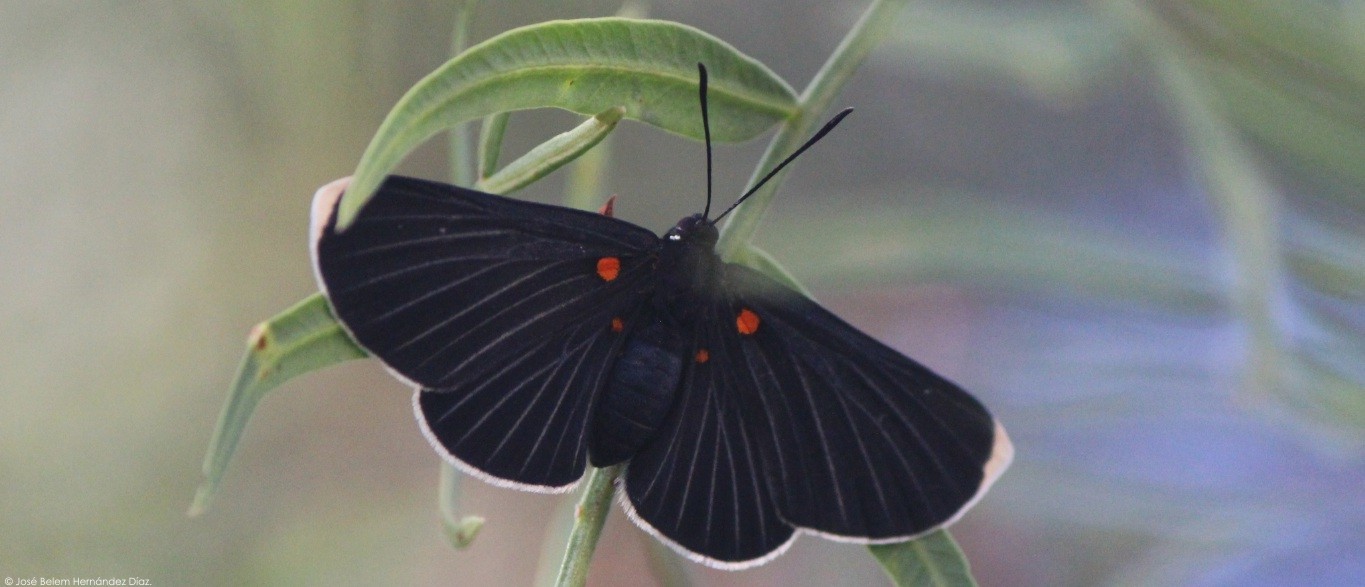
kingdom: Animalia
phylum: Arthropoda
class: Insecta
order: Lepidoptera
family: Lycaenidae
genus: Melanis
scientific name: Melanis
